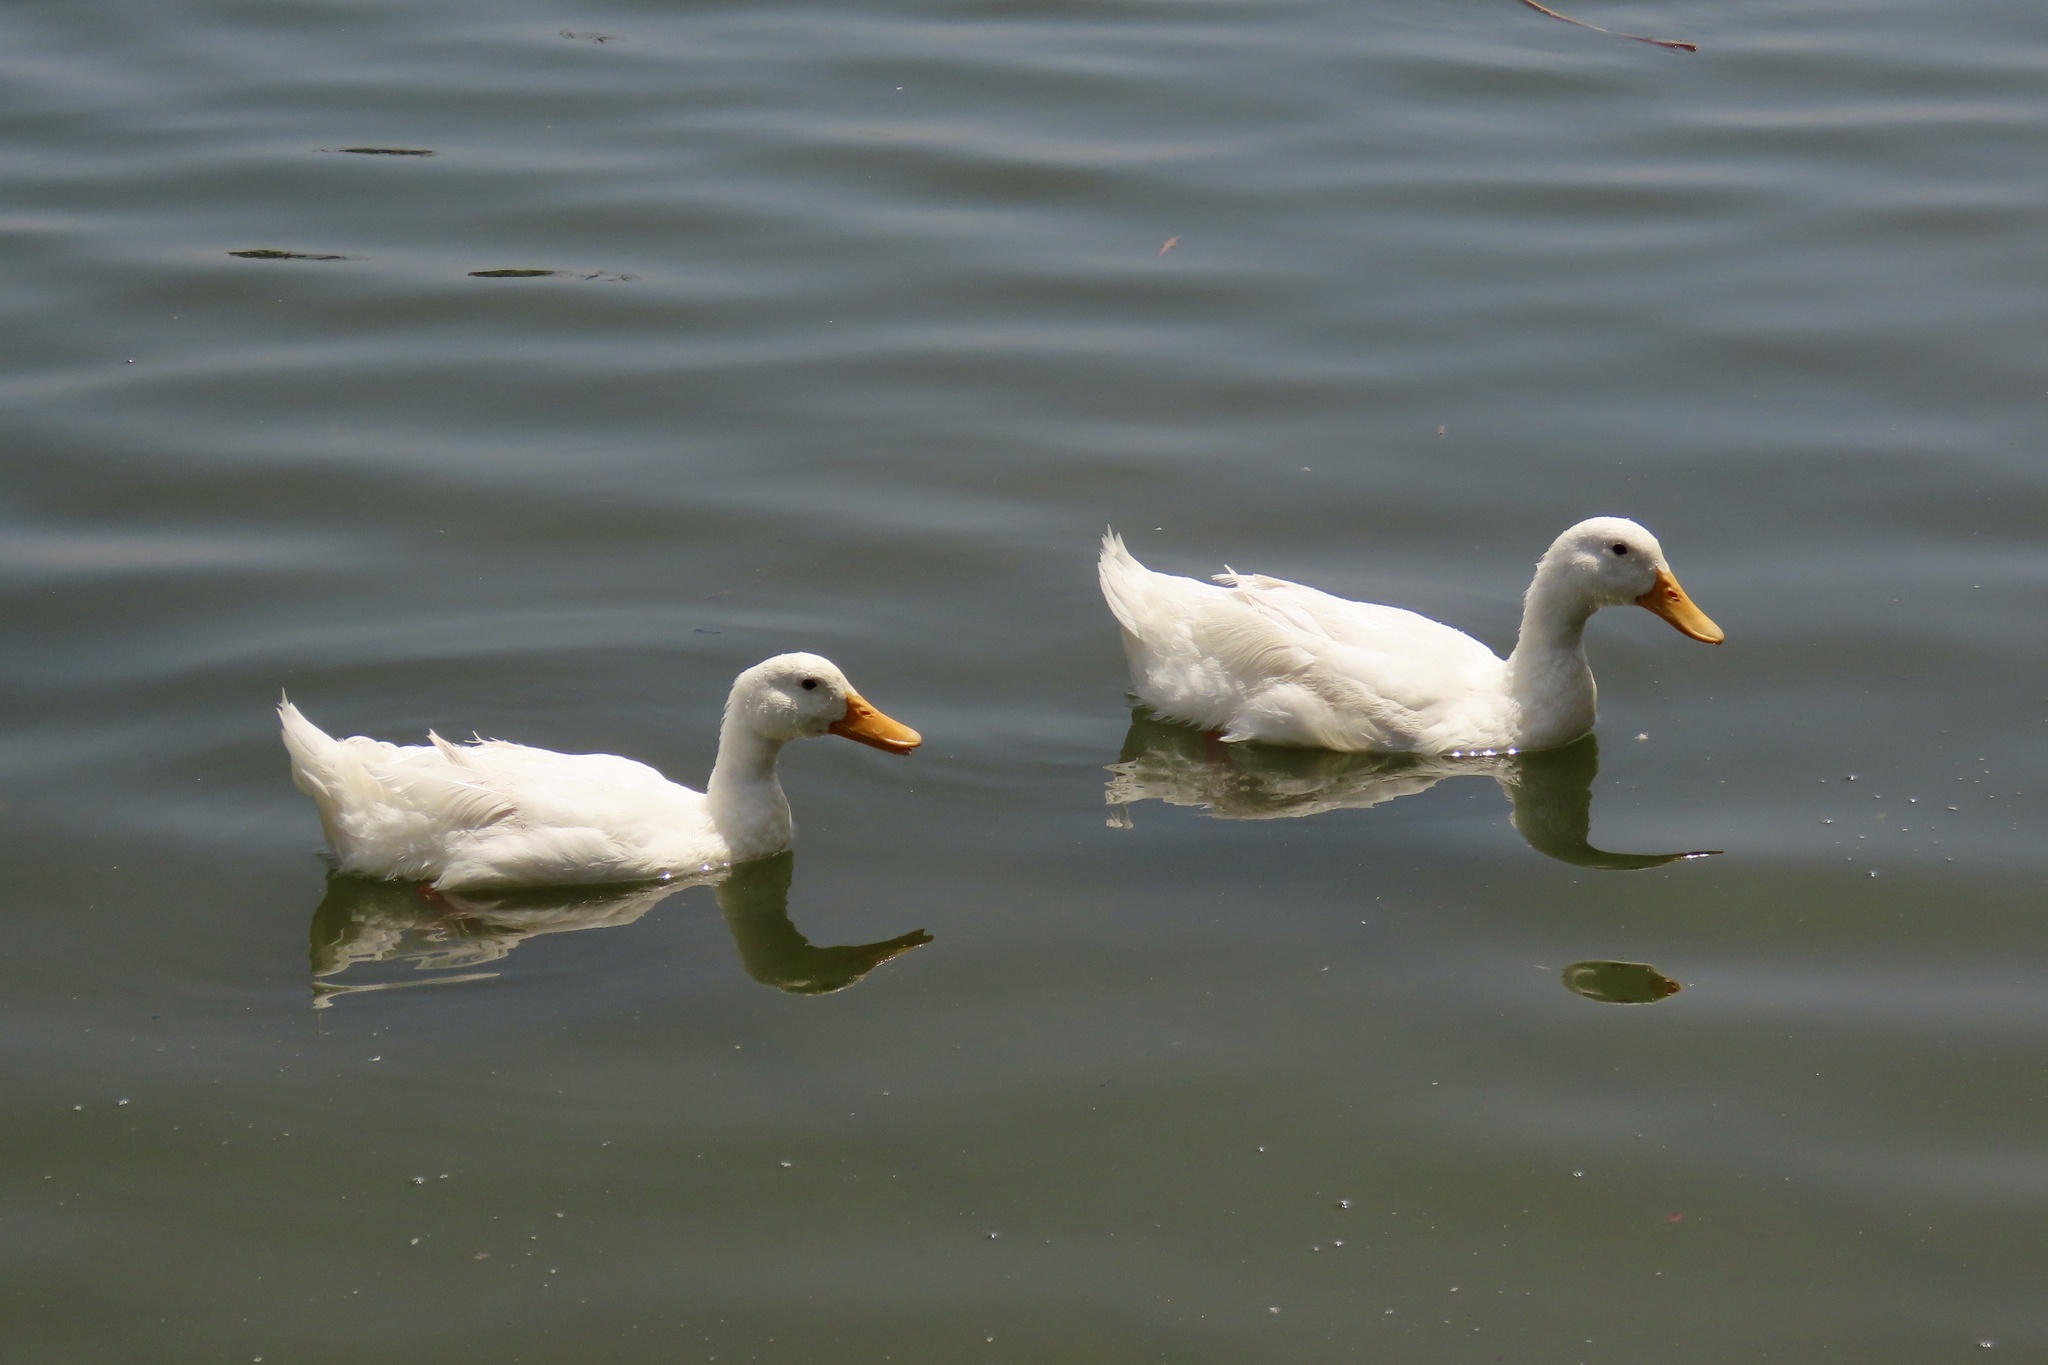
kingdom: Animalia
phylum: Chordata
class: Aves
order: Anseriformes
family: Anatidae
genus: Anas
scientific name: Anas platyrhynchos
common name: Mallard
